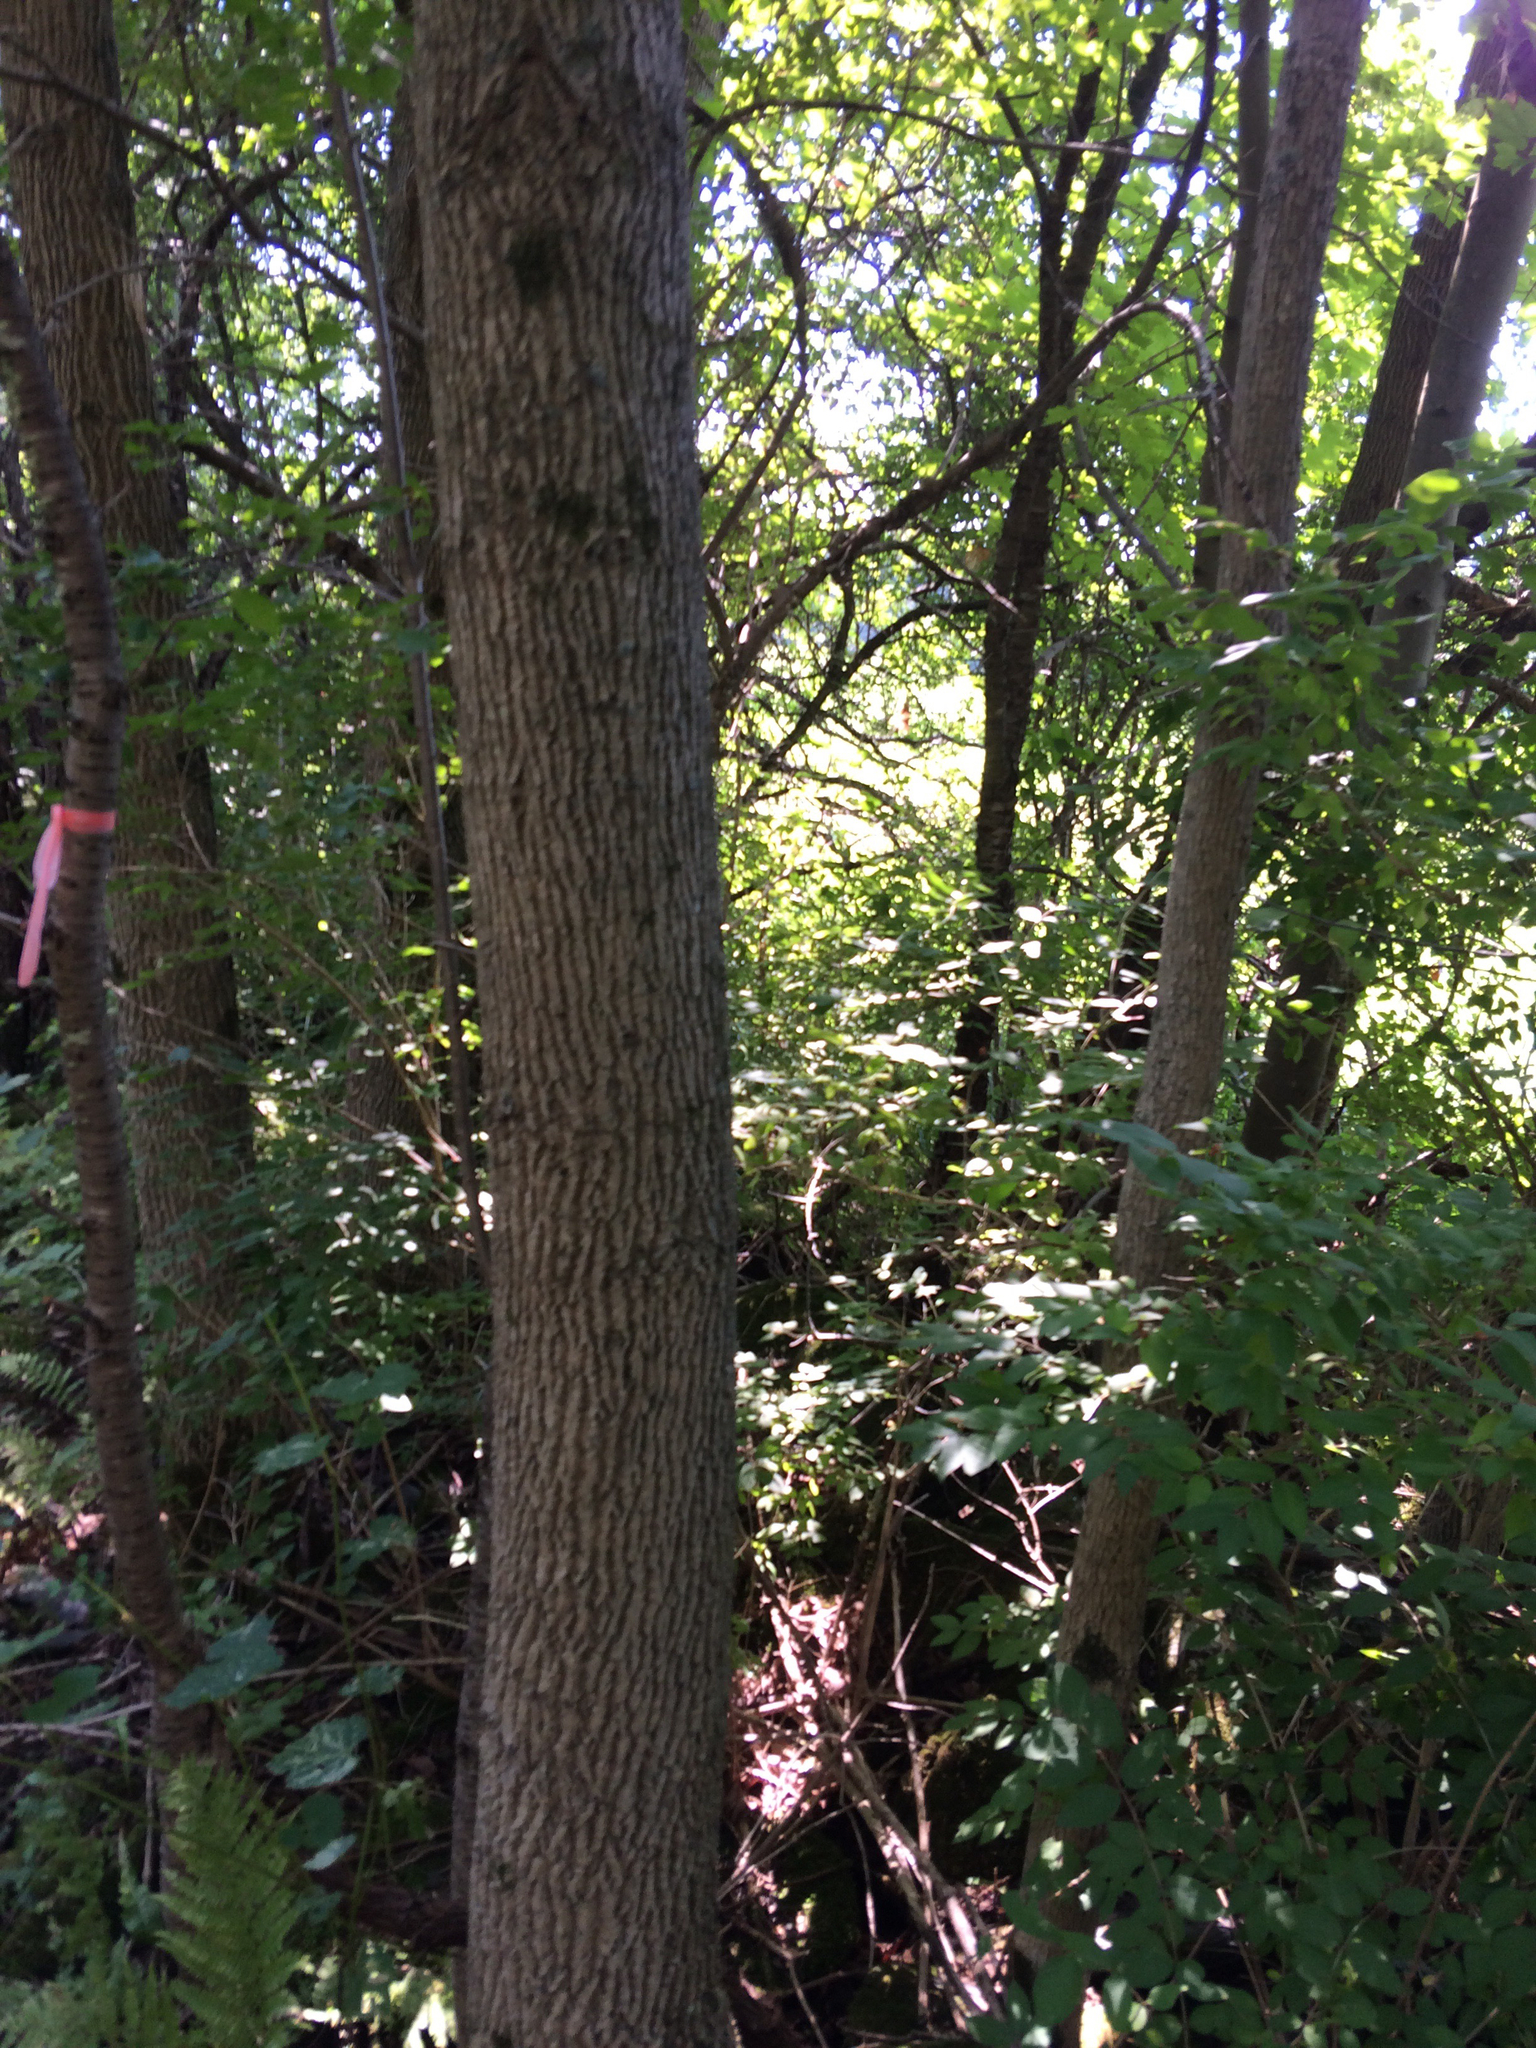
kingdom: Plantae
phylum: Tracheophyta
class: Magnoliopsida
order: Lamiales
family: Oleaceae
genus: Fraxinus
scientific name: Fraxinus americana
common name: White ash
